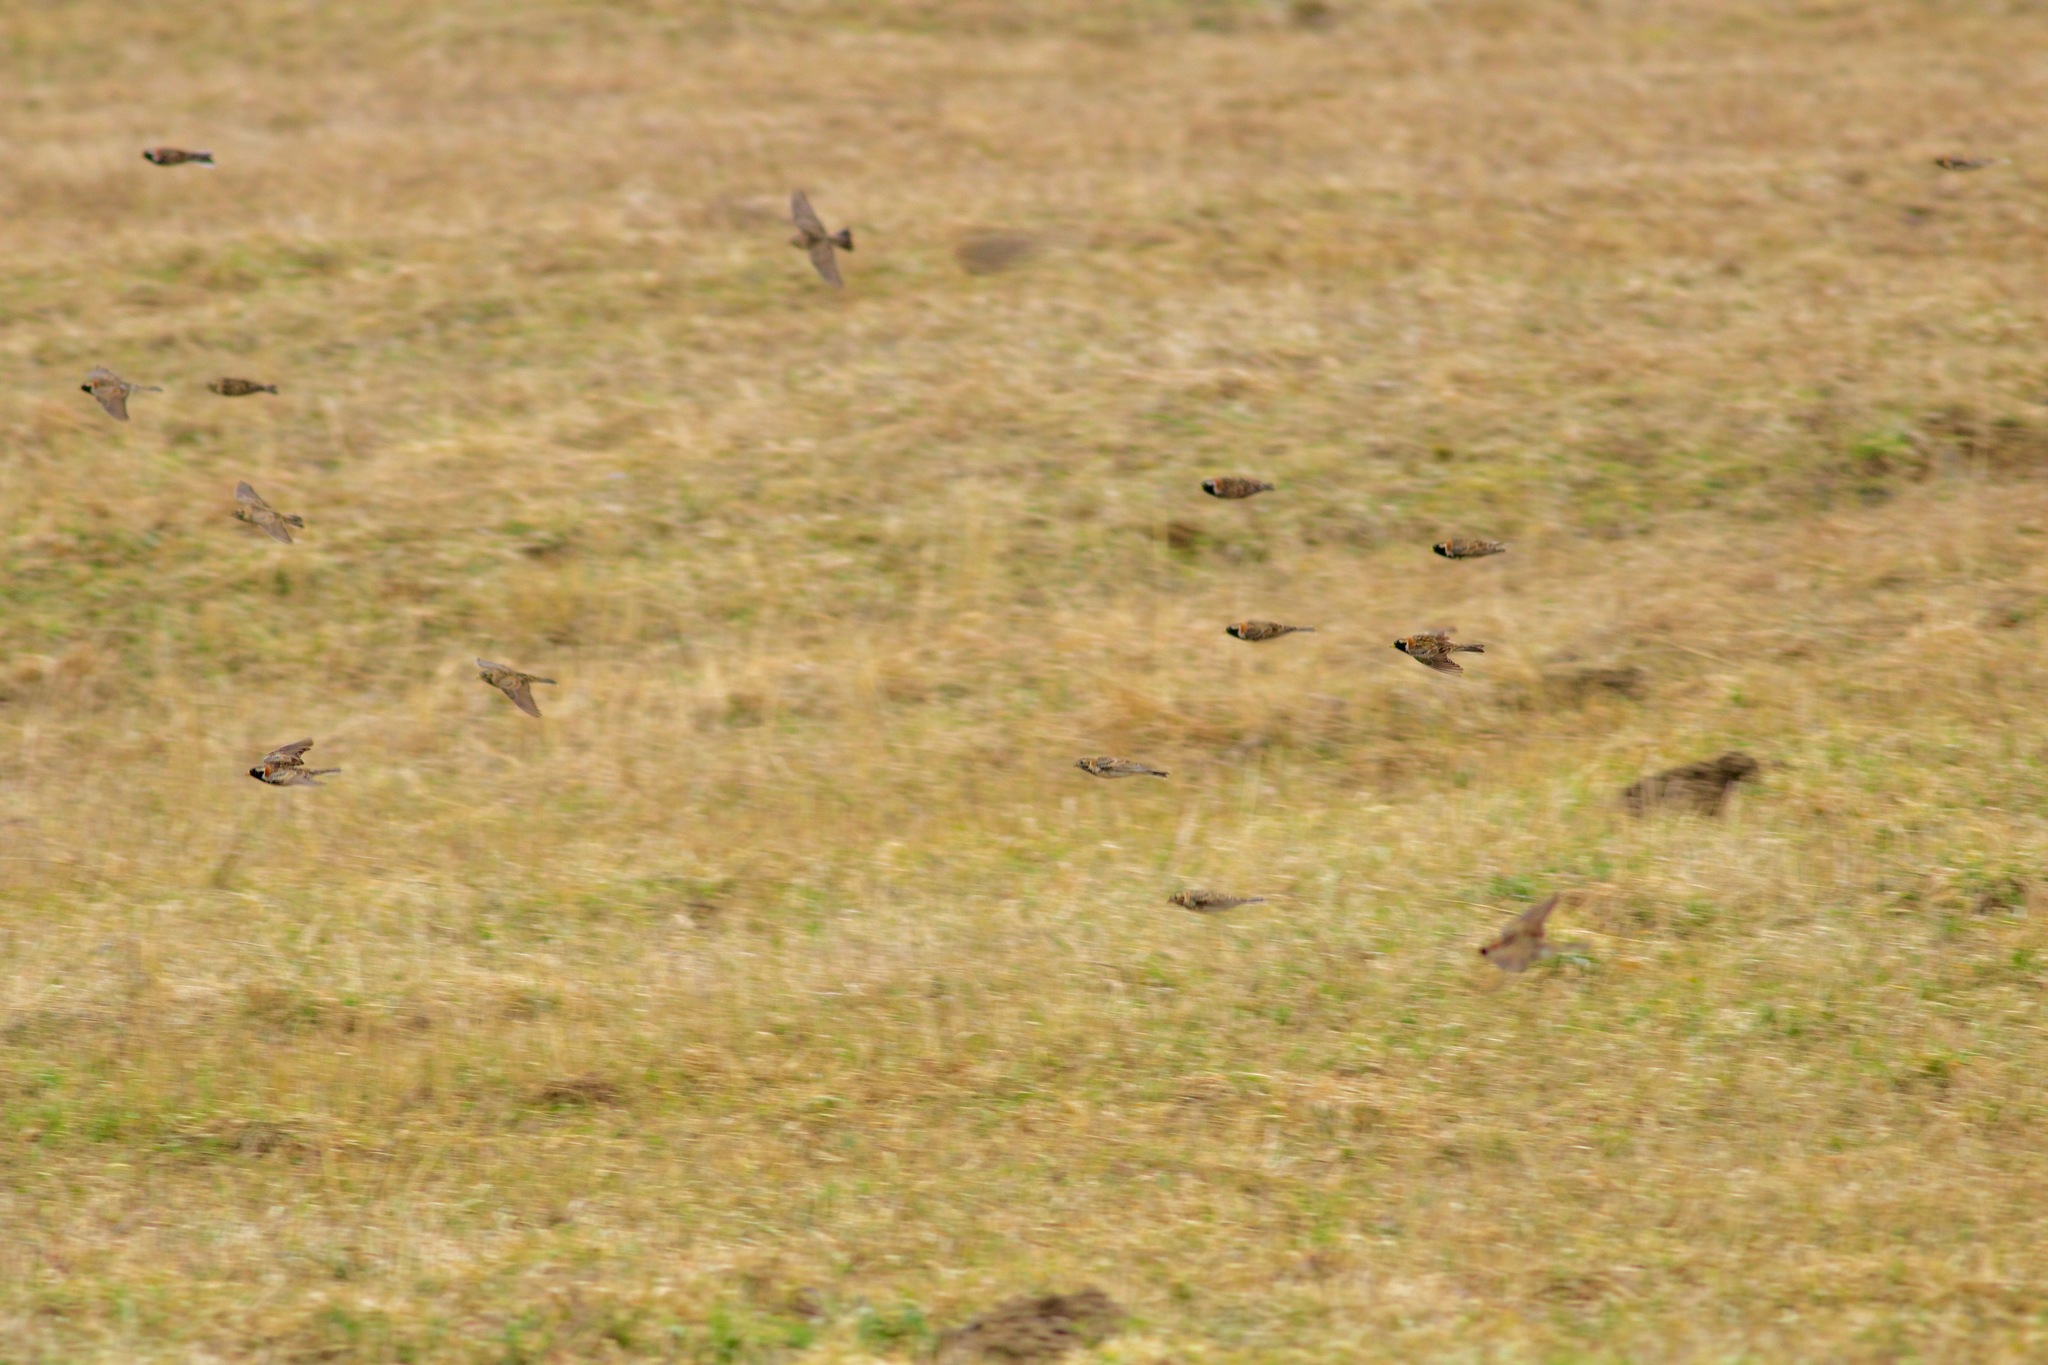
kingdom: Animalia
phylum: Chordata
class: Aves
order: Passeriformes
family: Calcariidae
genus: Calcarius
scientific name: Calcarius lapponicus
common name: Lapland longspur
